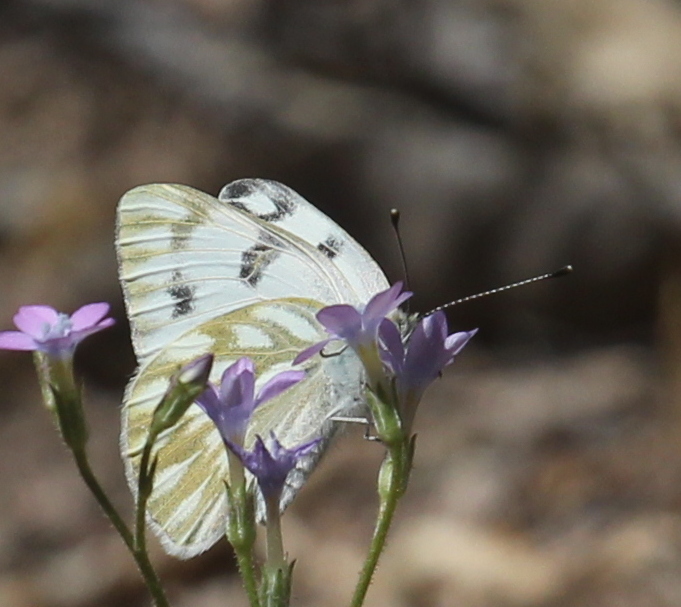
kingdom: Animalia
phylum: Arthropoda
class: Insecta
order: Lepidoptera
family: Pieridae
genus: Pontia
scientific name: Pontia protodice
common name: Checkered white
